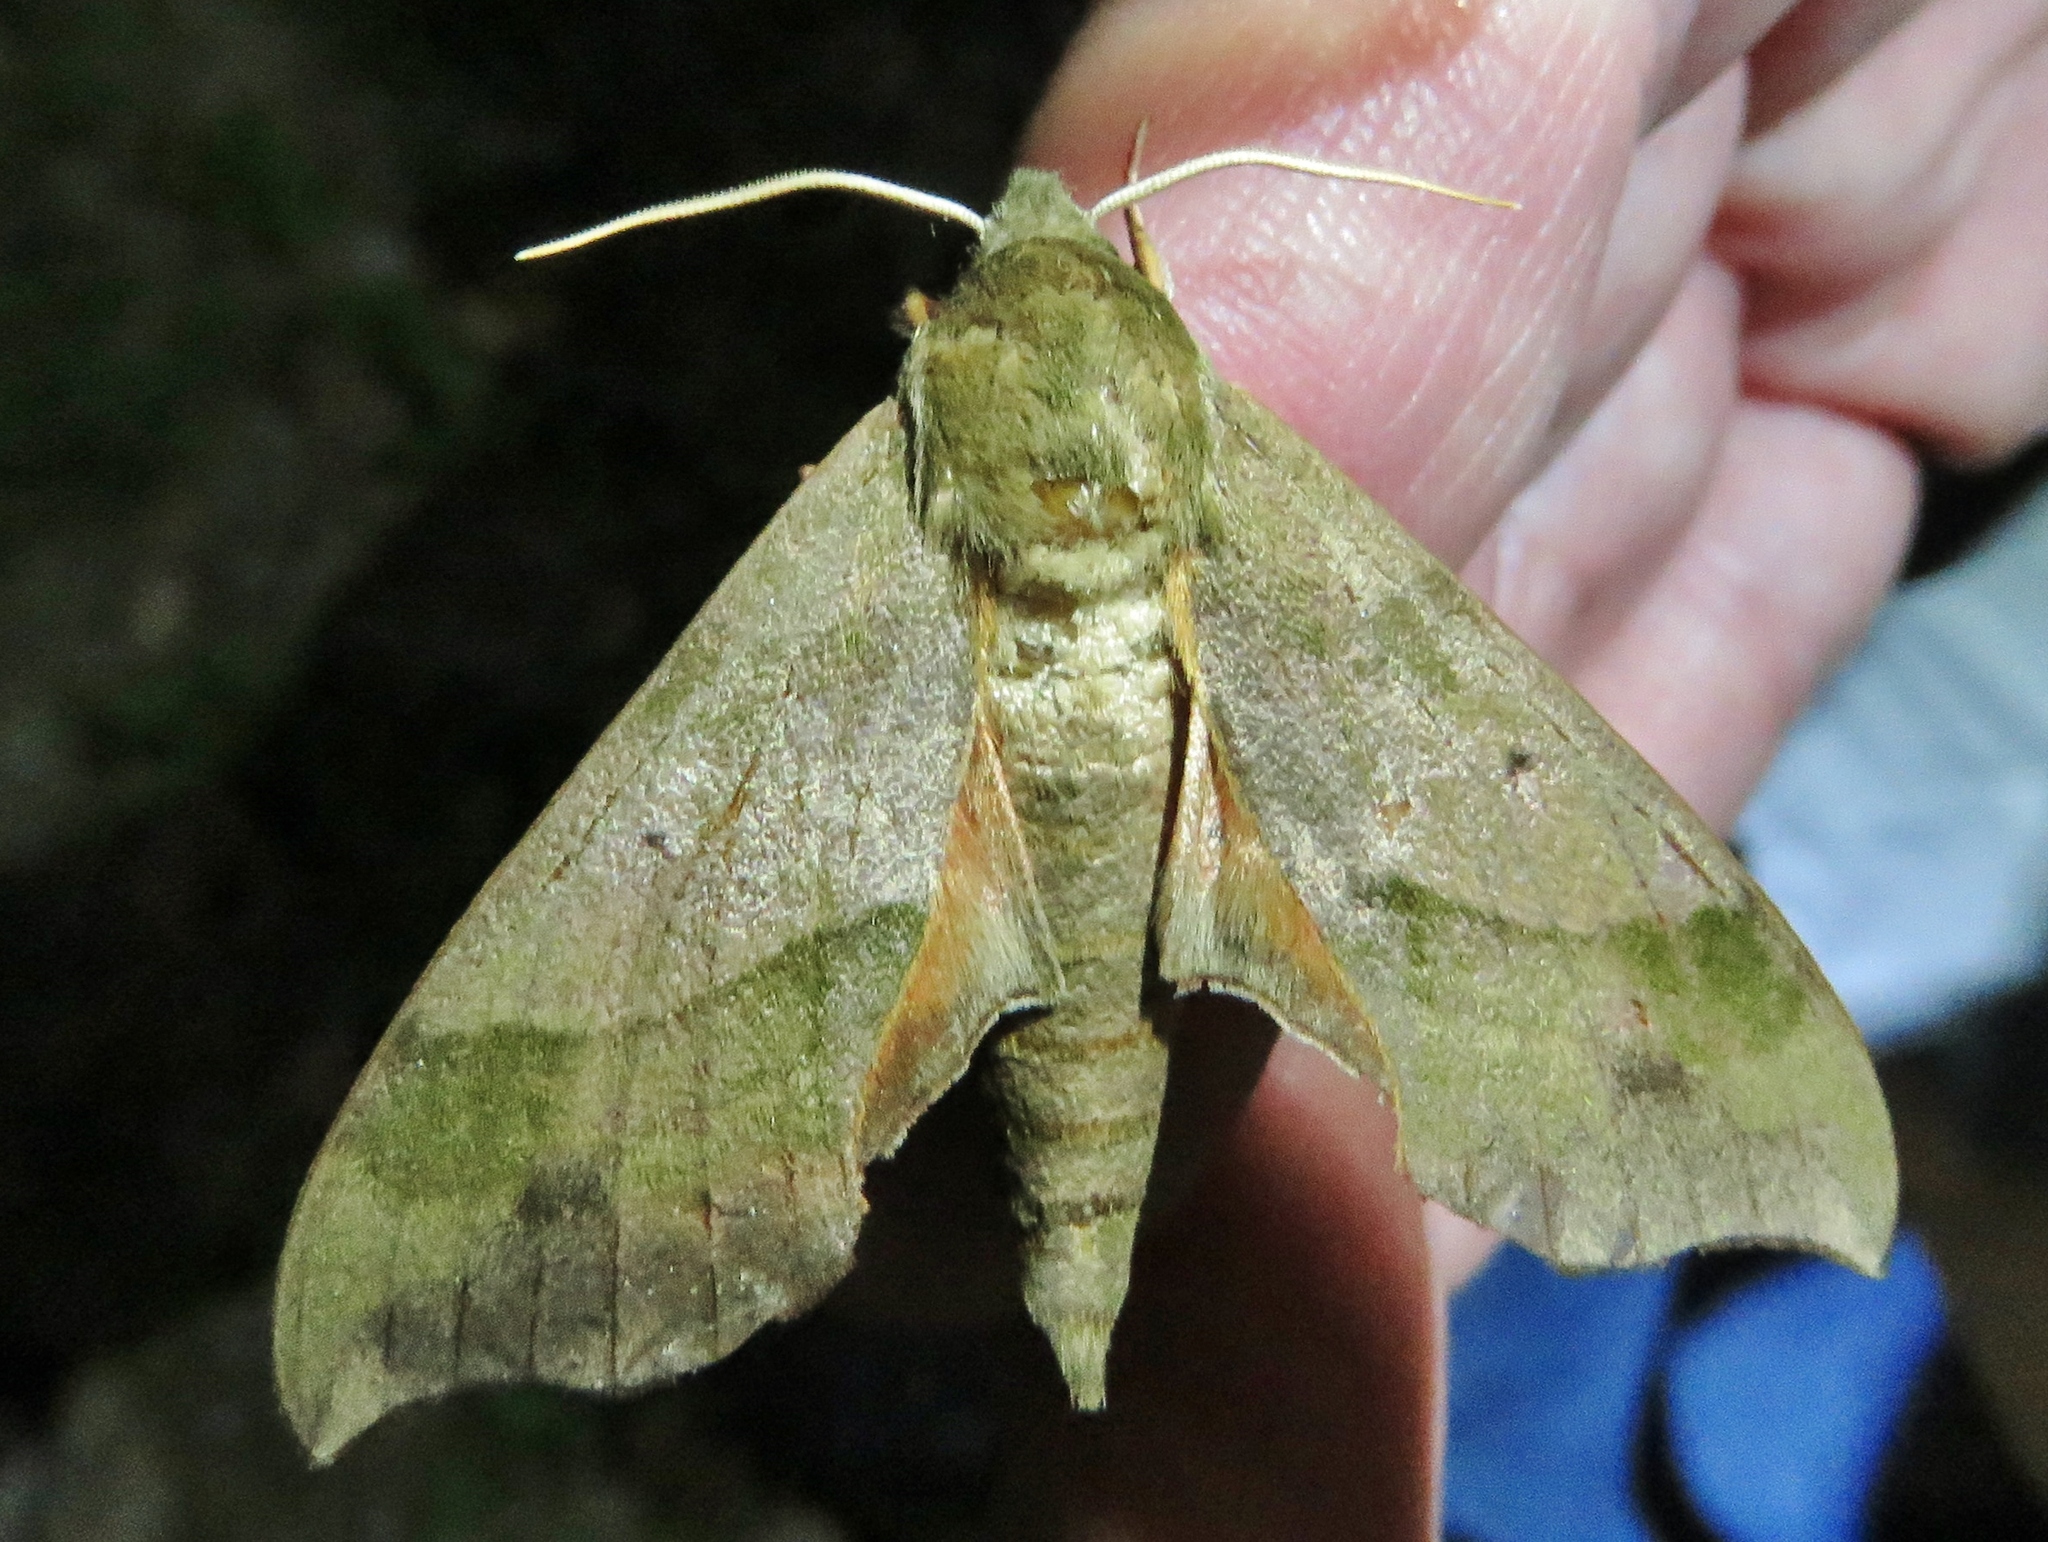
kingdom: Animalia
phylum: Arthropoda
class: Insecta
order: Lepidoptera
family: Sphingidae
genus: Darapsa
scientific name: Darapsa myron
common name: Hog sphinx
